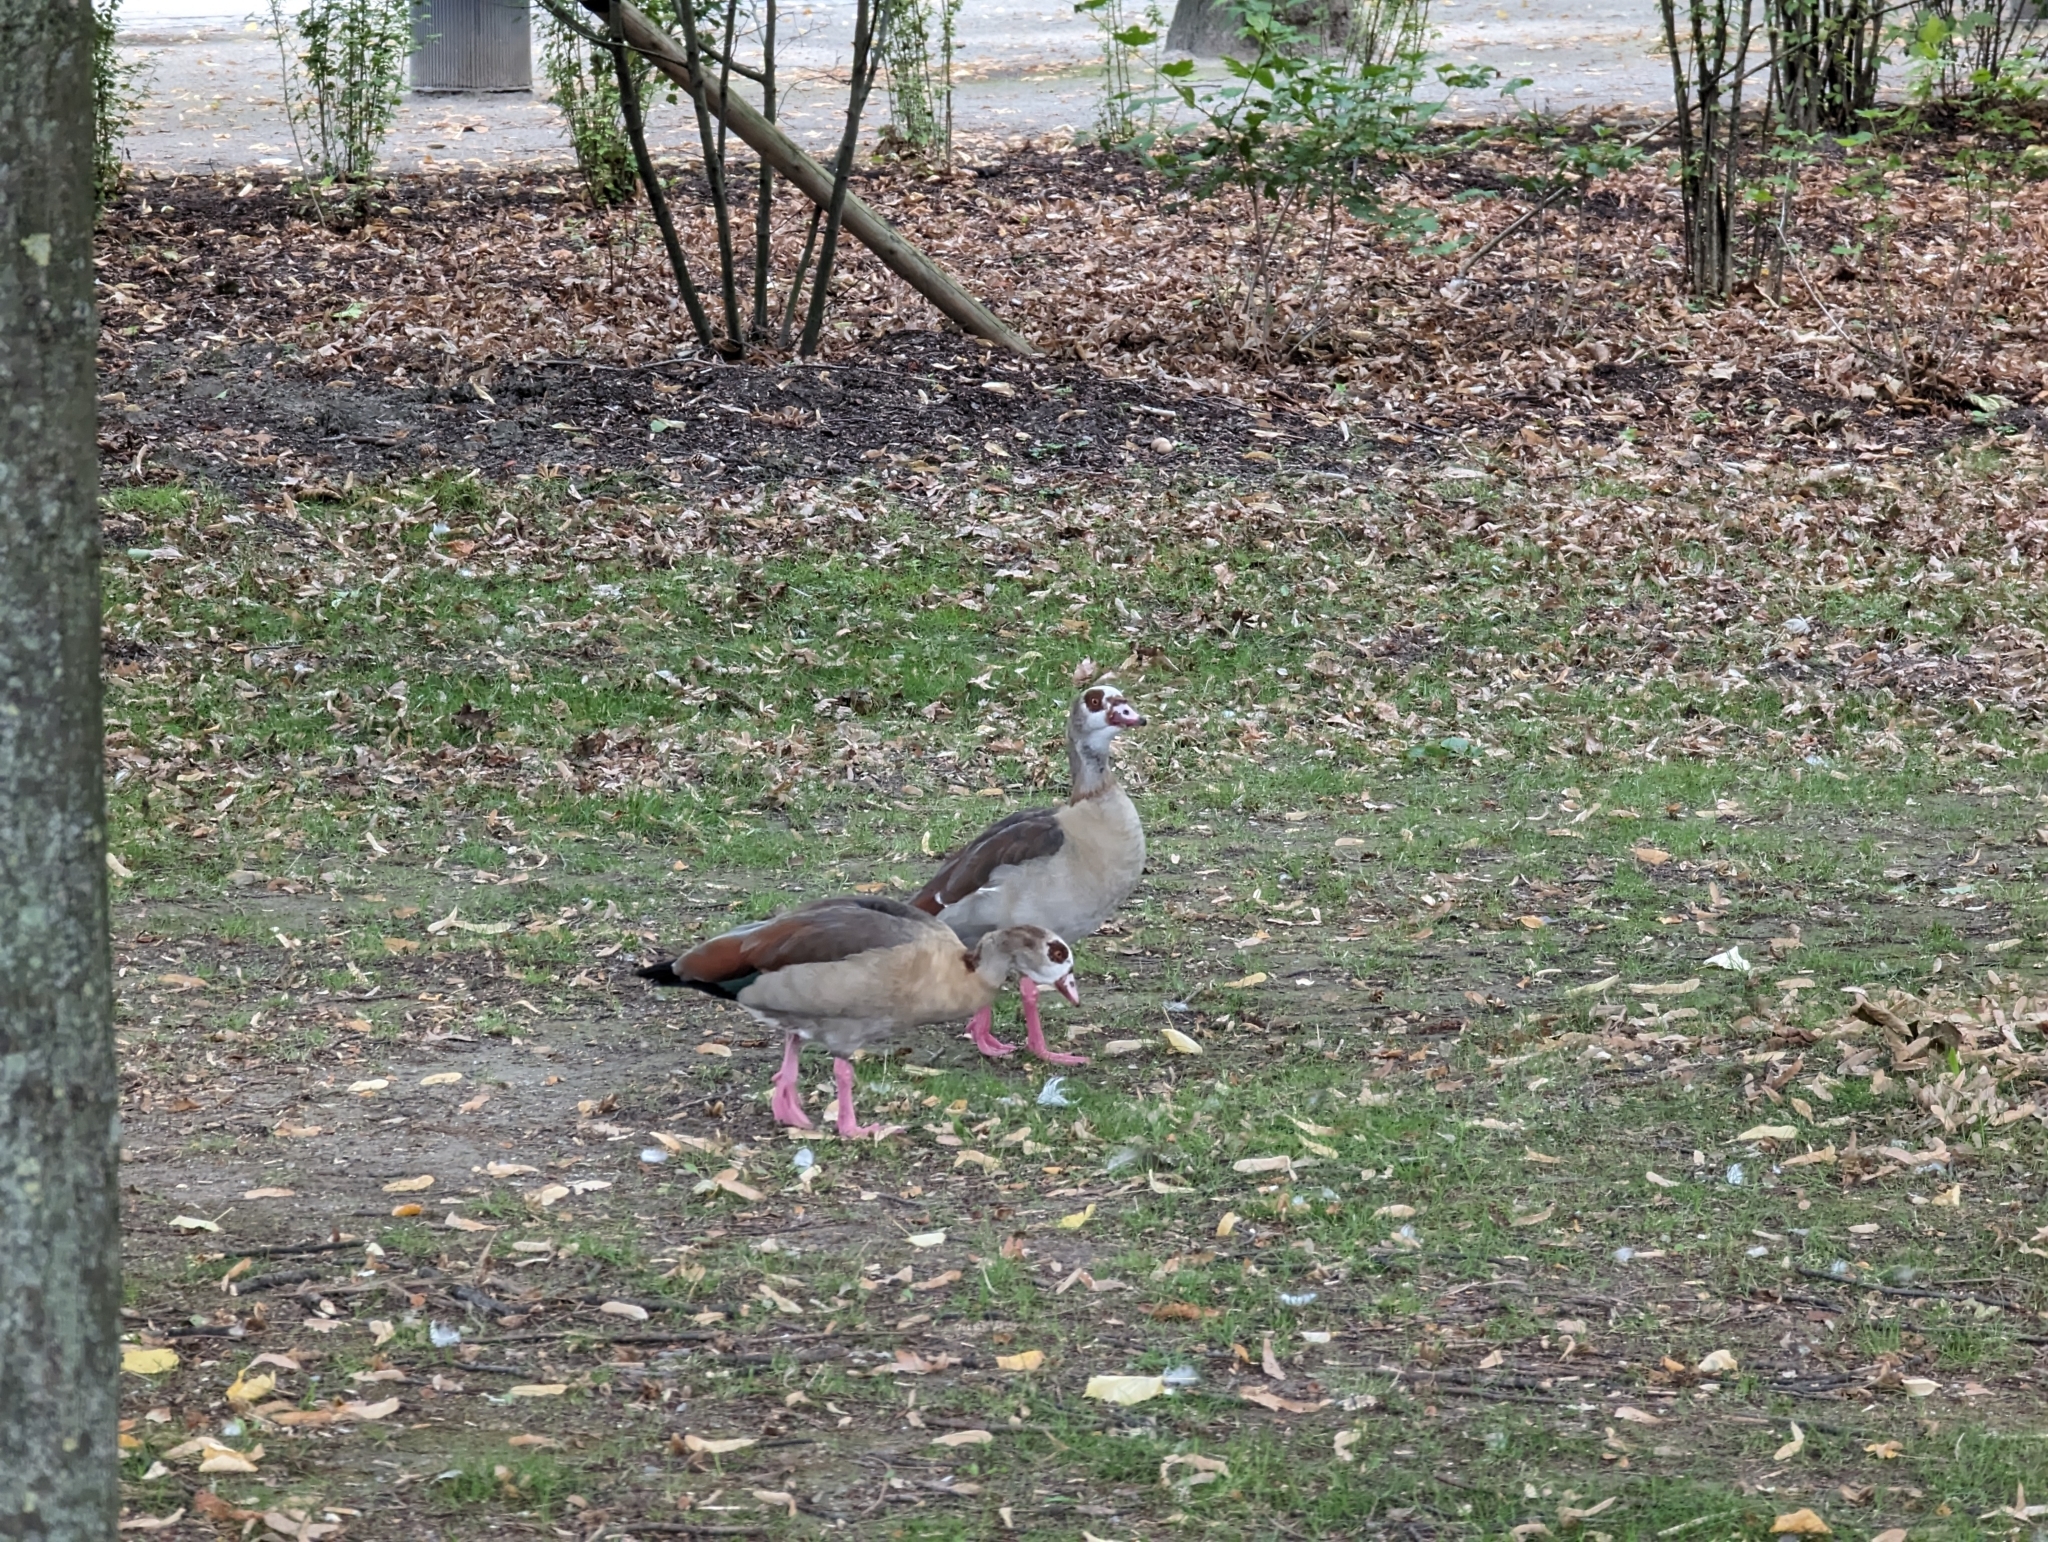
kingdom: Animalia
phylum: Chordata
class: Aves
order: Anseriformes
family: Anatidae
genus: Alopochen
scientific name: Alopochen aegyptiaca
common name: Egyptian goose
